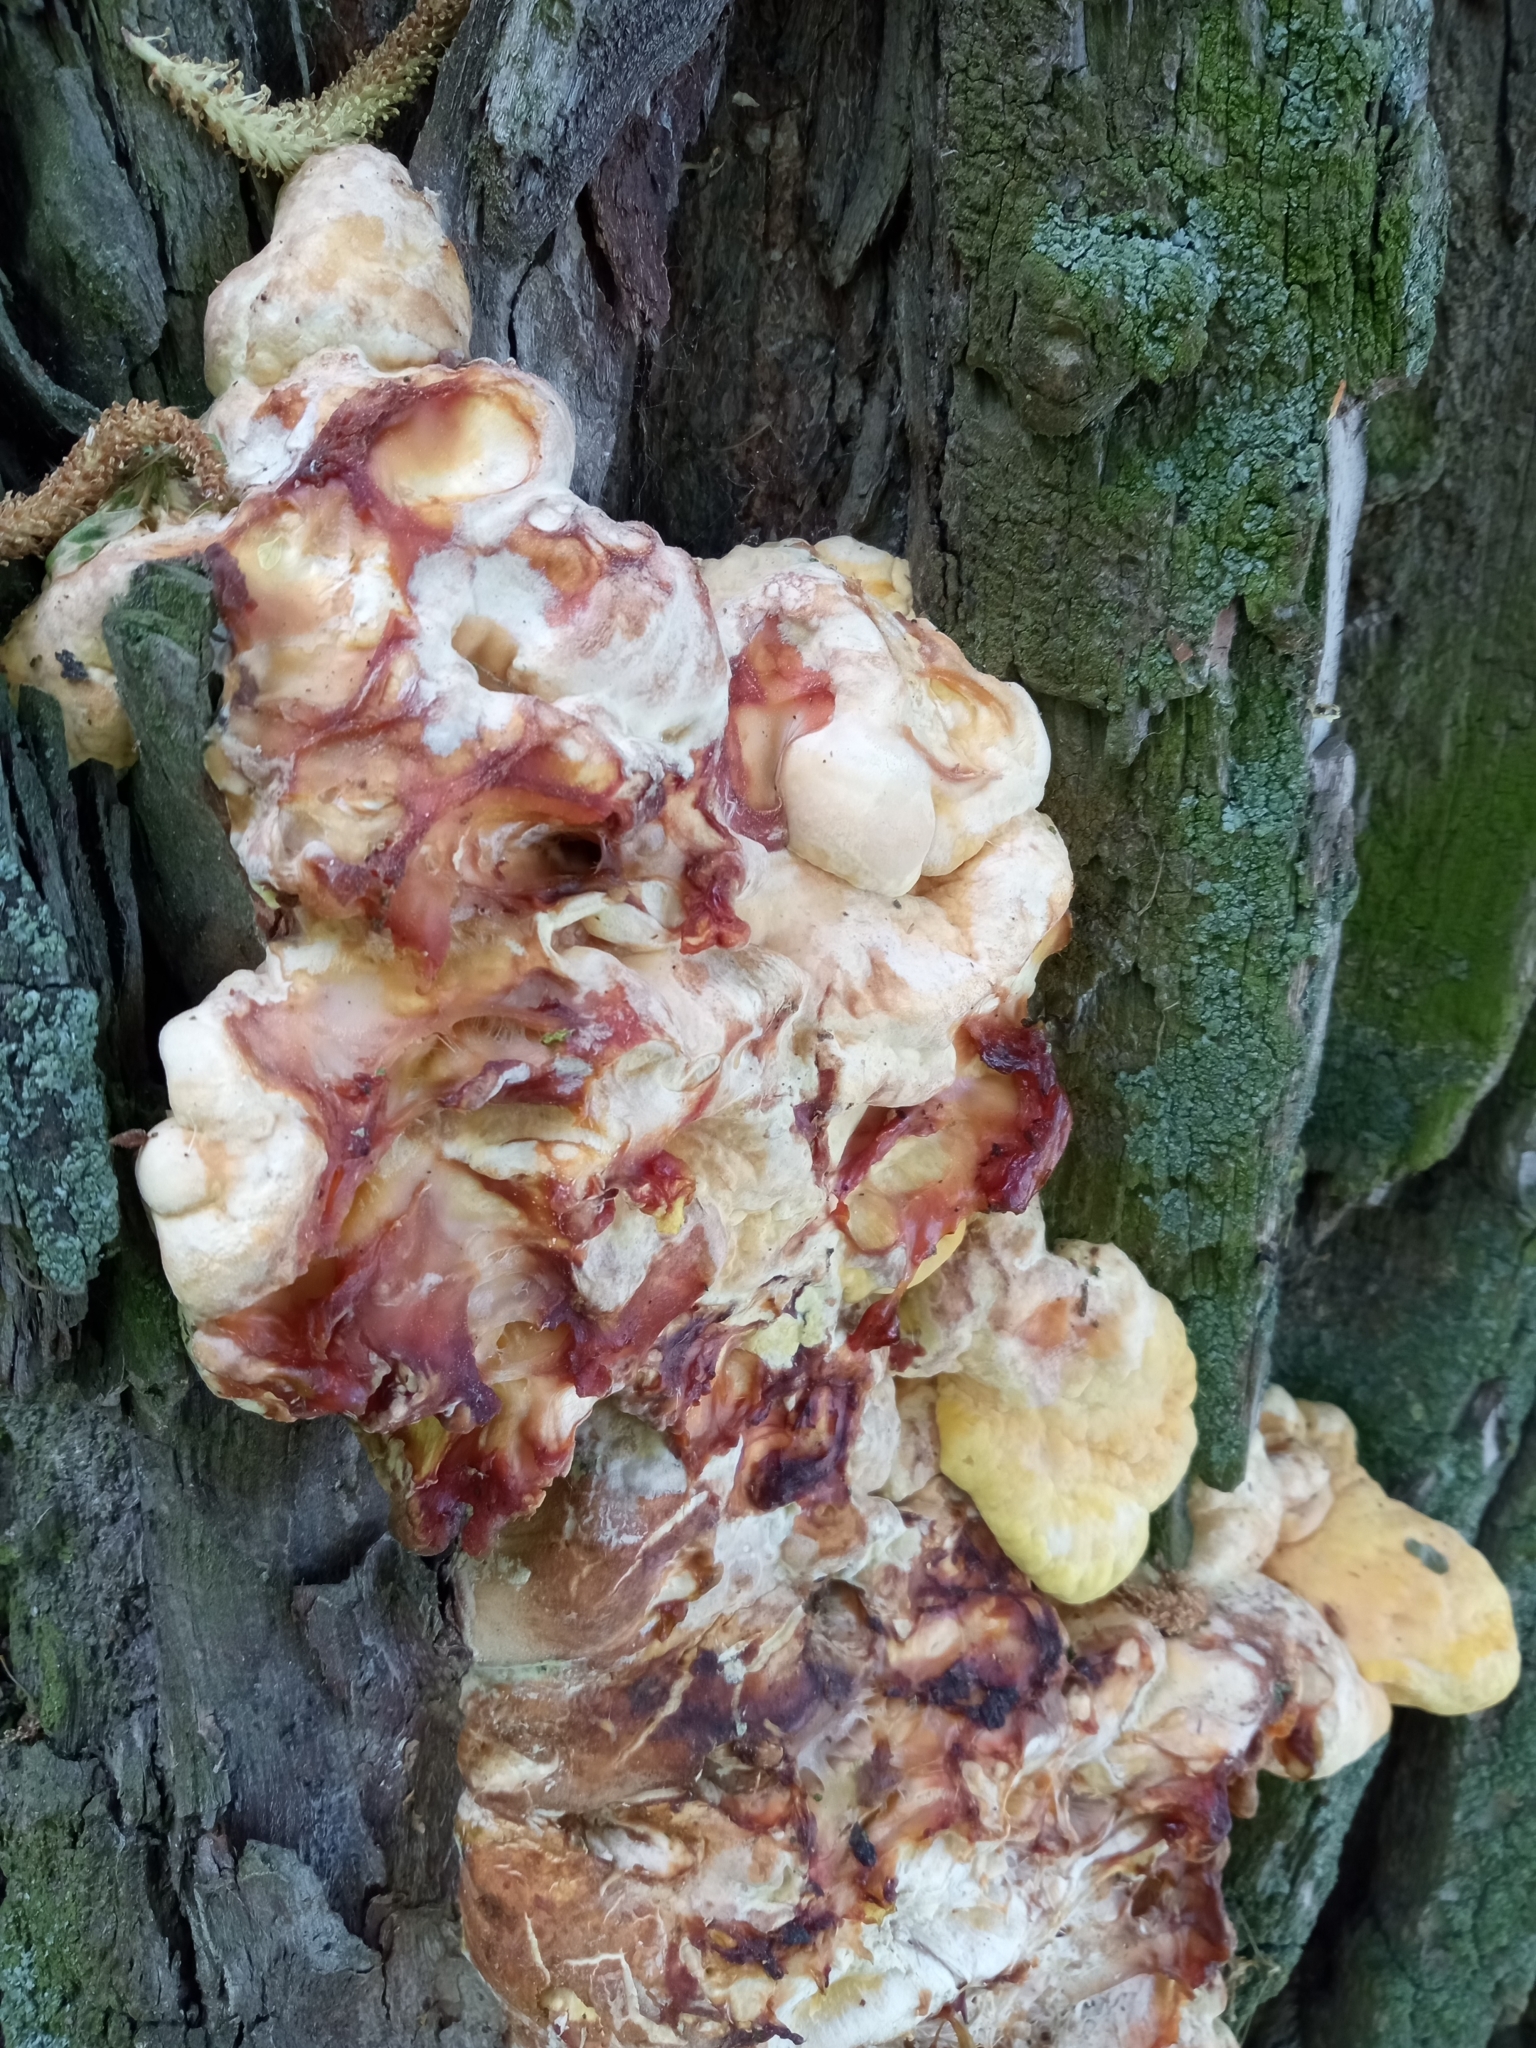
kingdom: Fungi
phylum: Basidiomycota
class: Agaricomycetes
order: Polyporales
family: Laetiporaceae
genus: Laetiporus
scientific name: Laetiporus sulphureus
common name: Chicken of the woods
